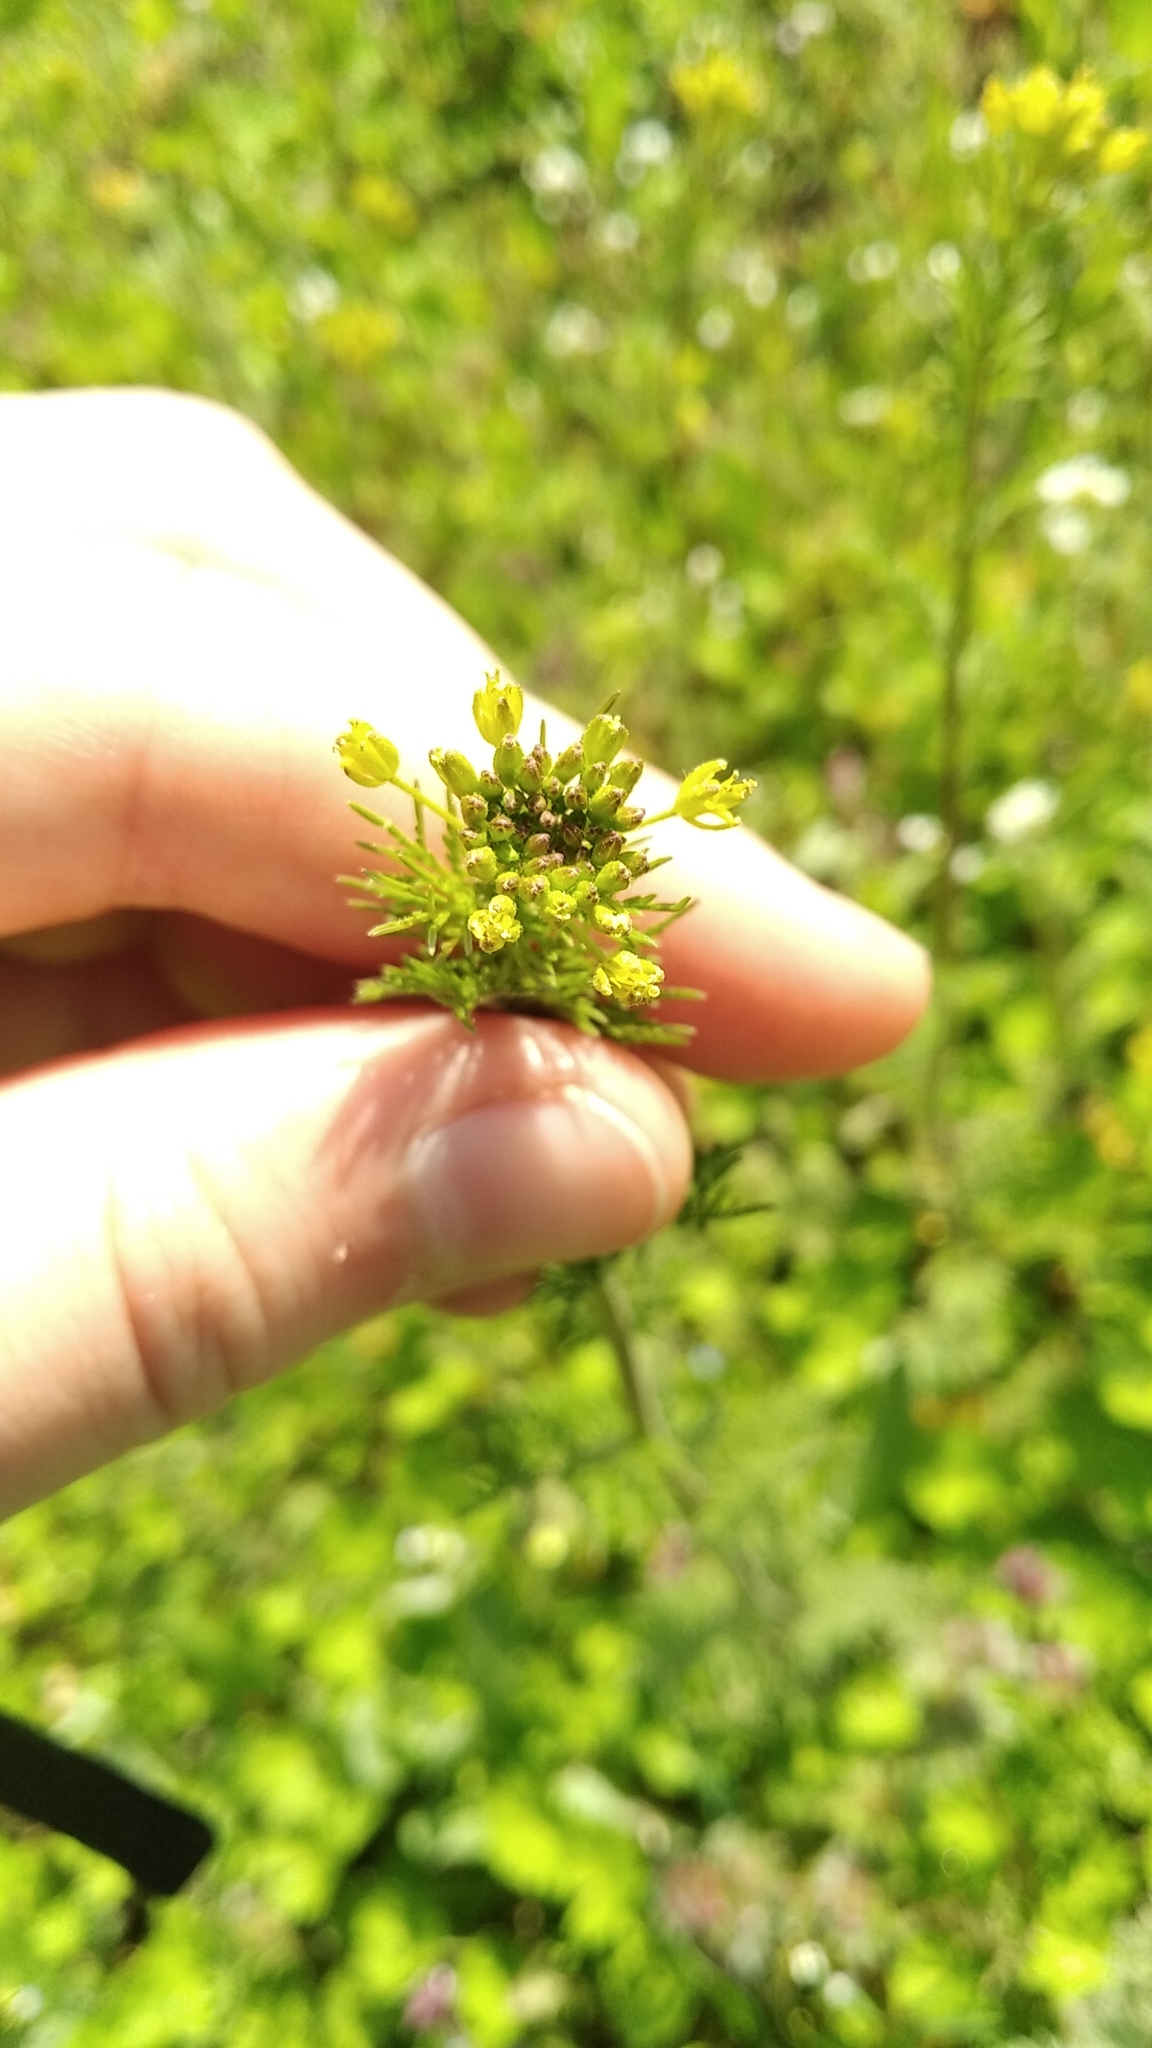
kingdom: Plantae
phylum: Tracheophyta
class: Magnoliopsida
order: Brassicales
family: Brassicaceae
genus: Descurainia
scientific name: Descurainia sophia
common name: Flixweed
